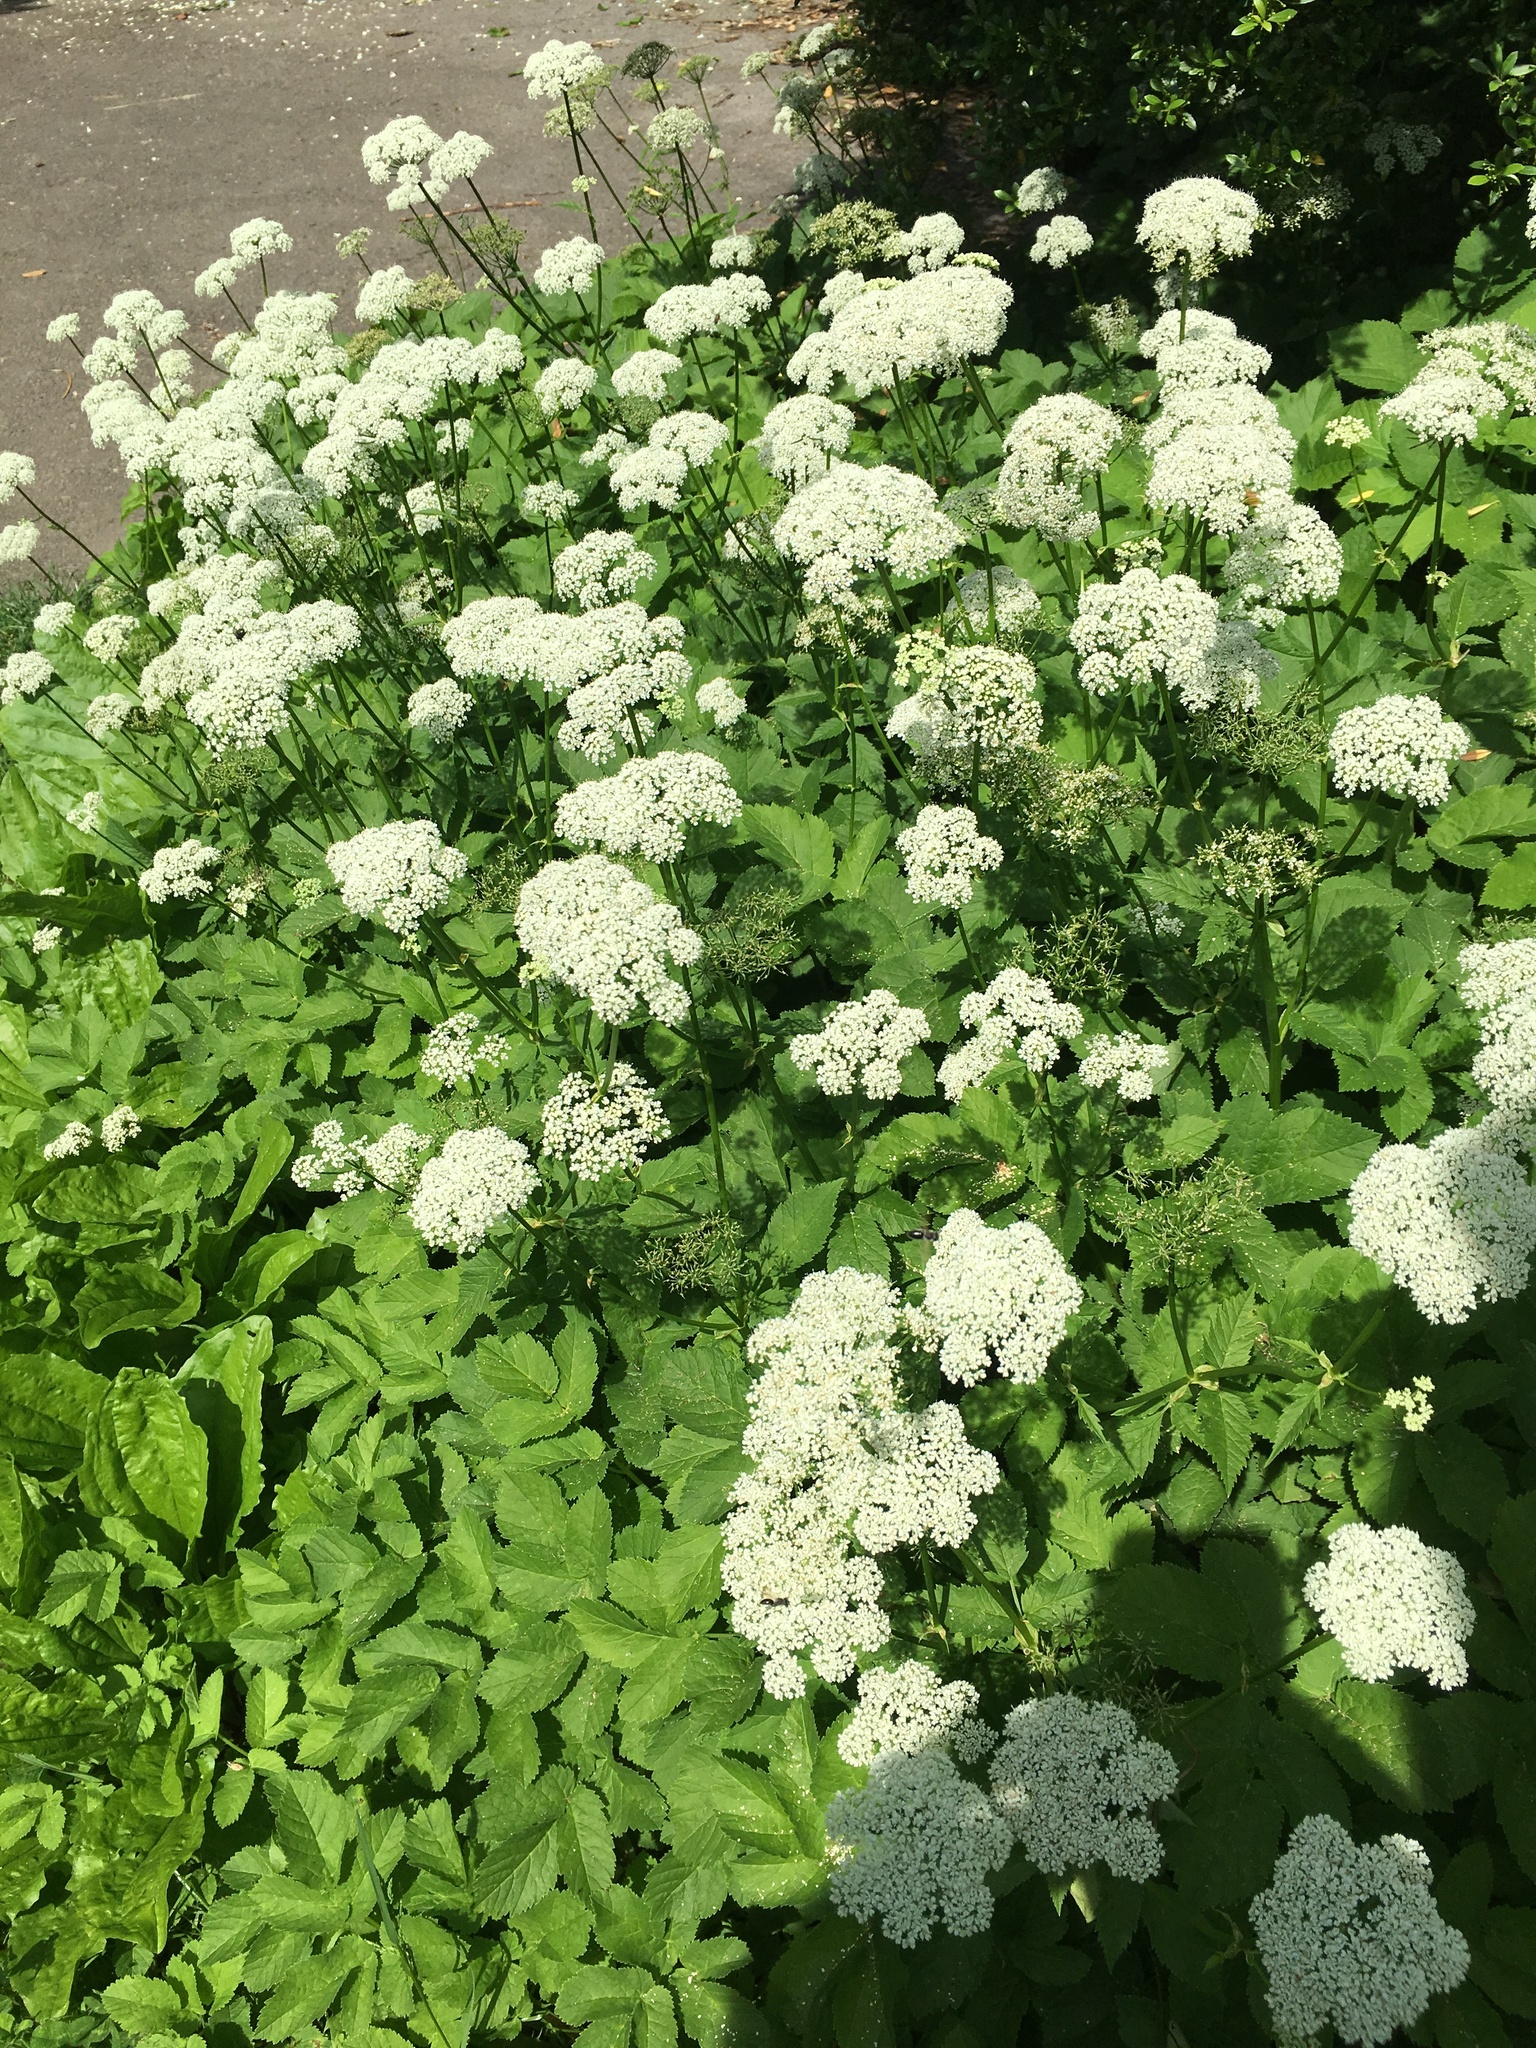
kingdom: Plantae
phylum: Tracheophyta
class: Magnoliopsida
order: Apiales
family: Apiaceae
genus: Aegopodium
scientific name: Aegopodium podagraria
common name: Ground-elder
